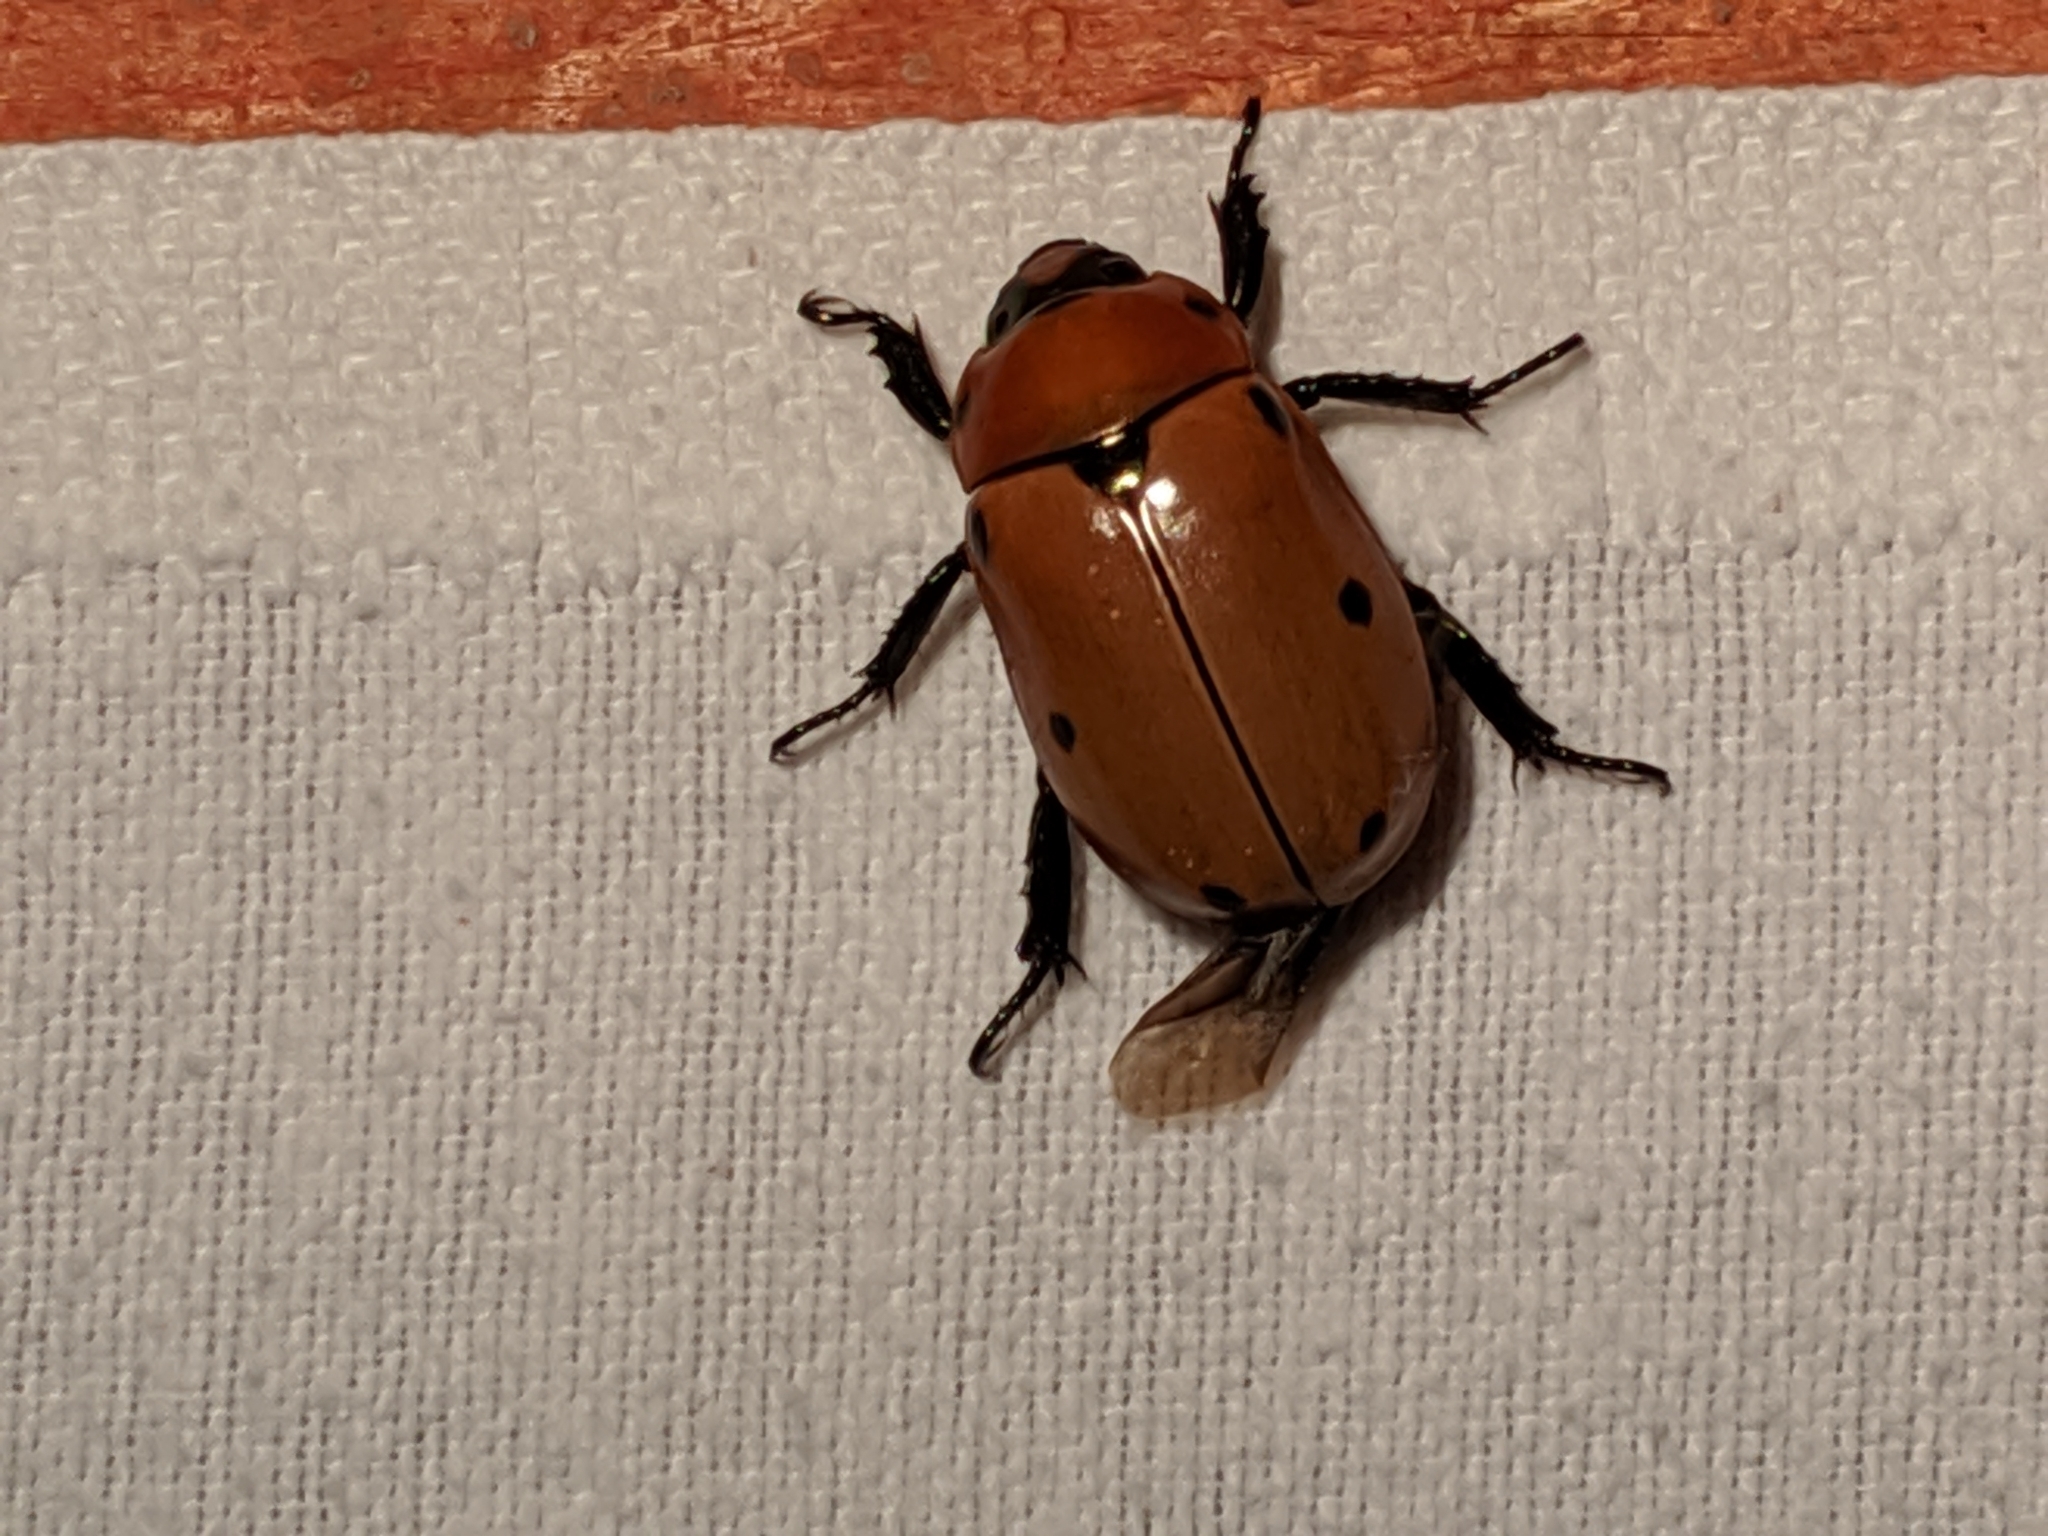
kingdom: Animalia
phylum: Arthropoda
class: Insecta
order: Coleoptera
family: Scarabaeidae
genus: Pelidnota
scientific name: Pelidnota punctata
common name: Grapevine beetle
